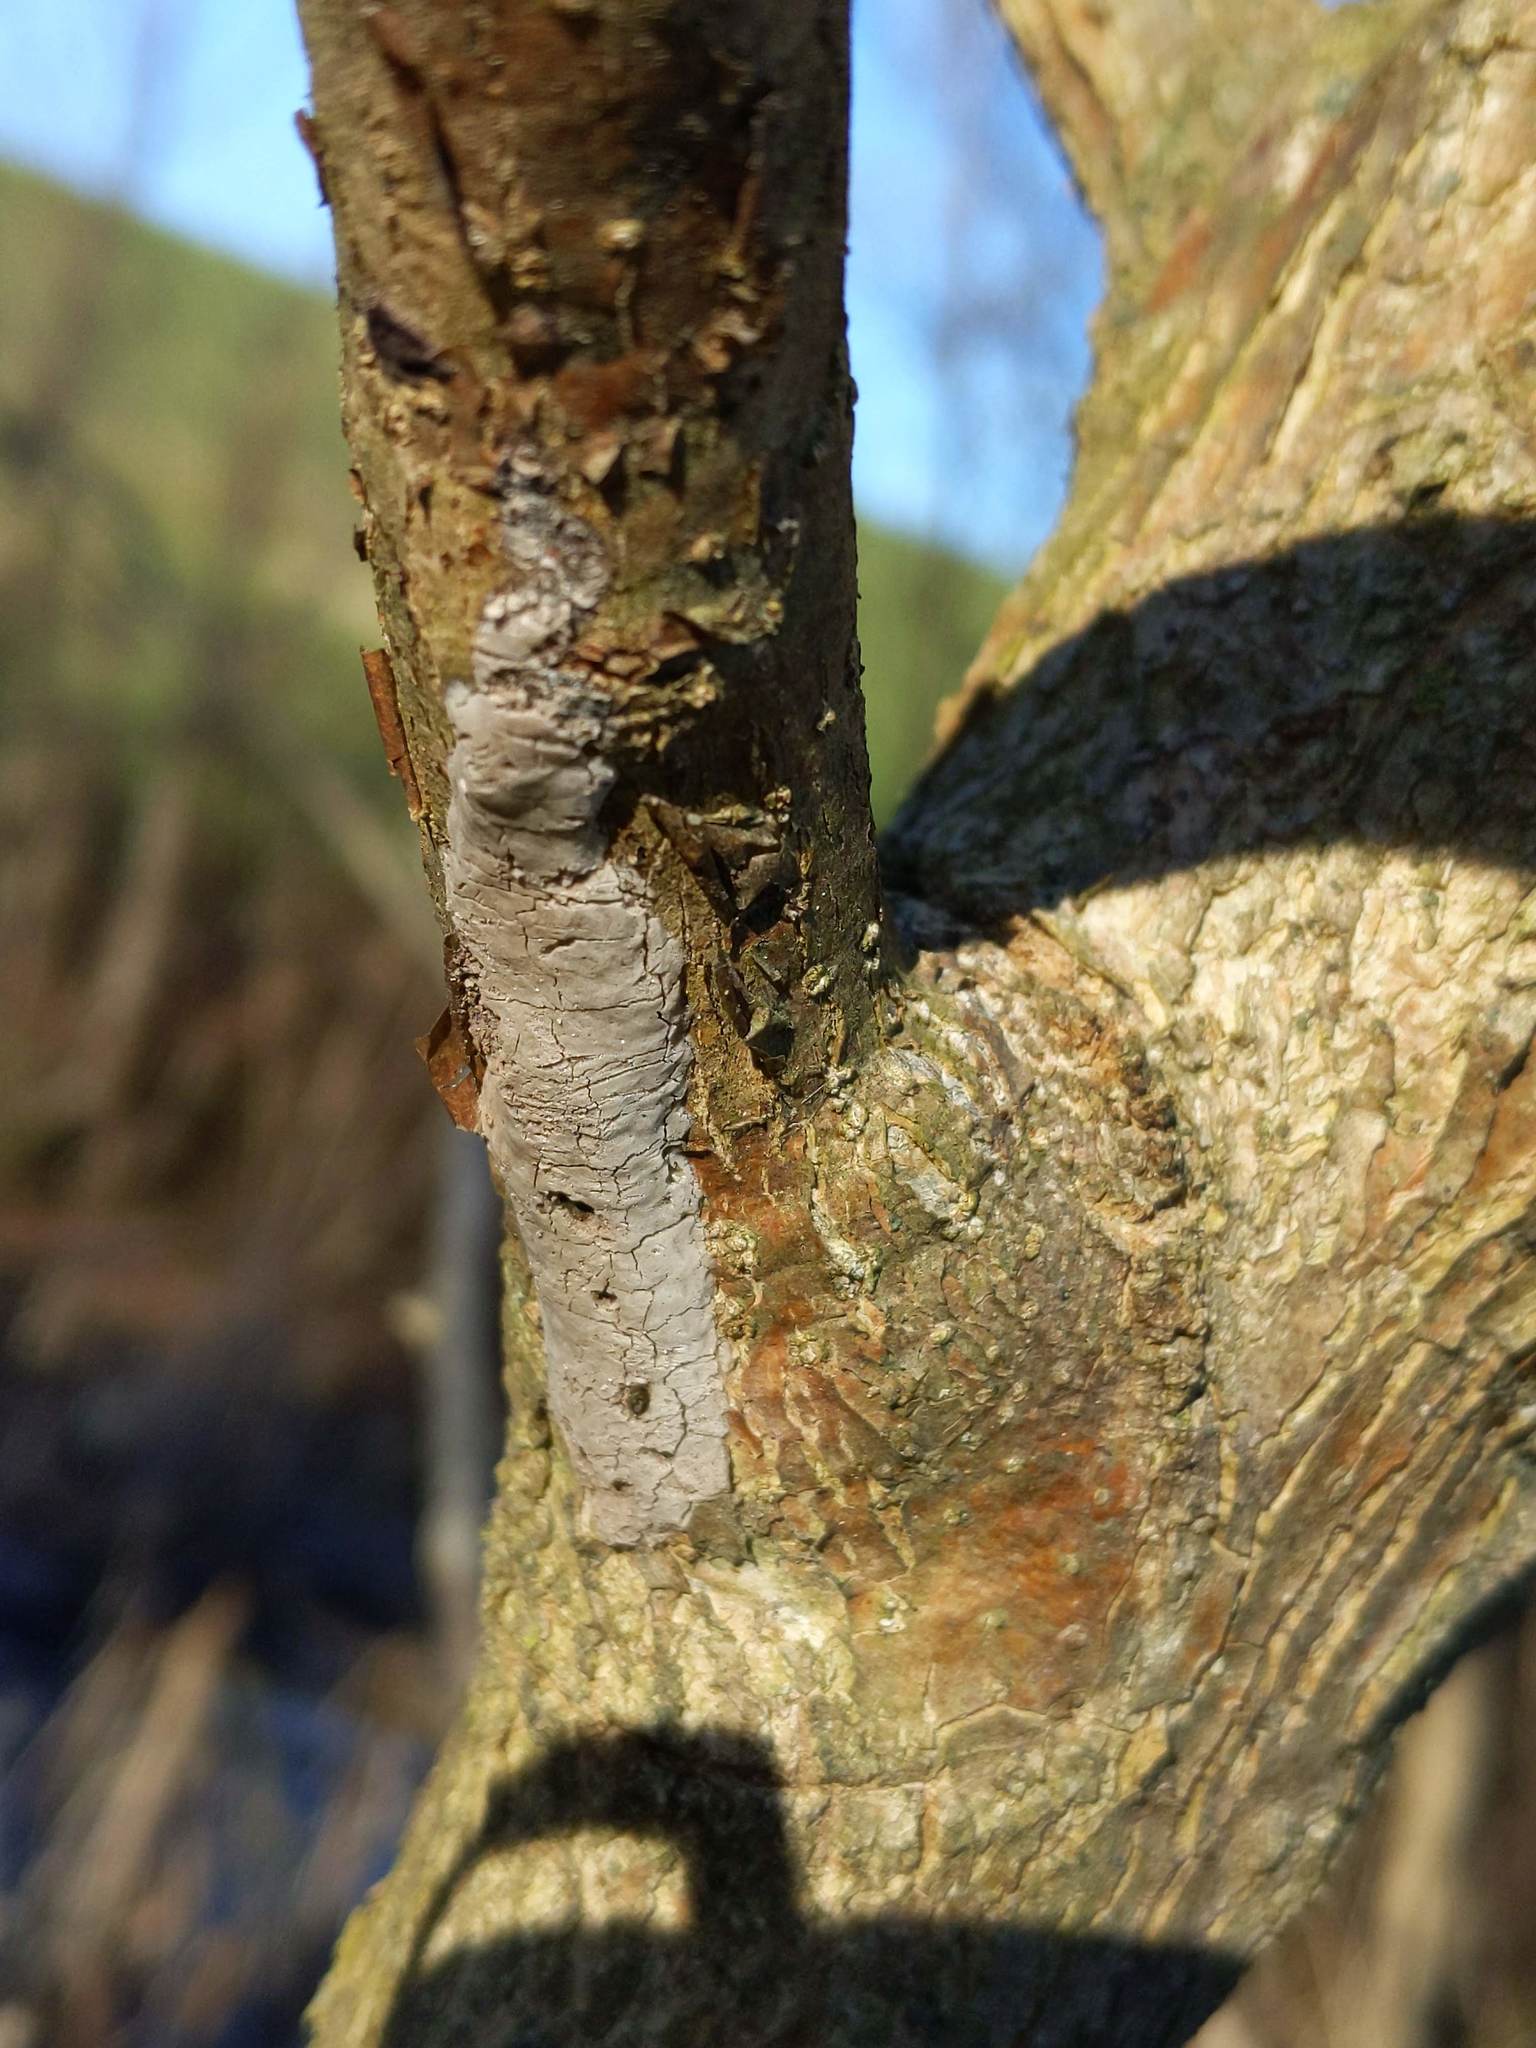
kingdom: Animalia
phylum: Arthropoda
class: Insecta
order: Hemiptera
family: Fulgoridae
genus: Lycorma
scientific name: Lycorma delicatula
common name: Spotted lanternfly
